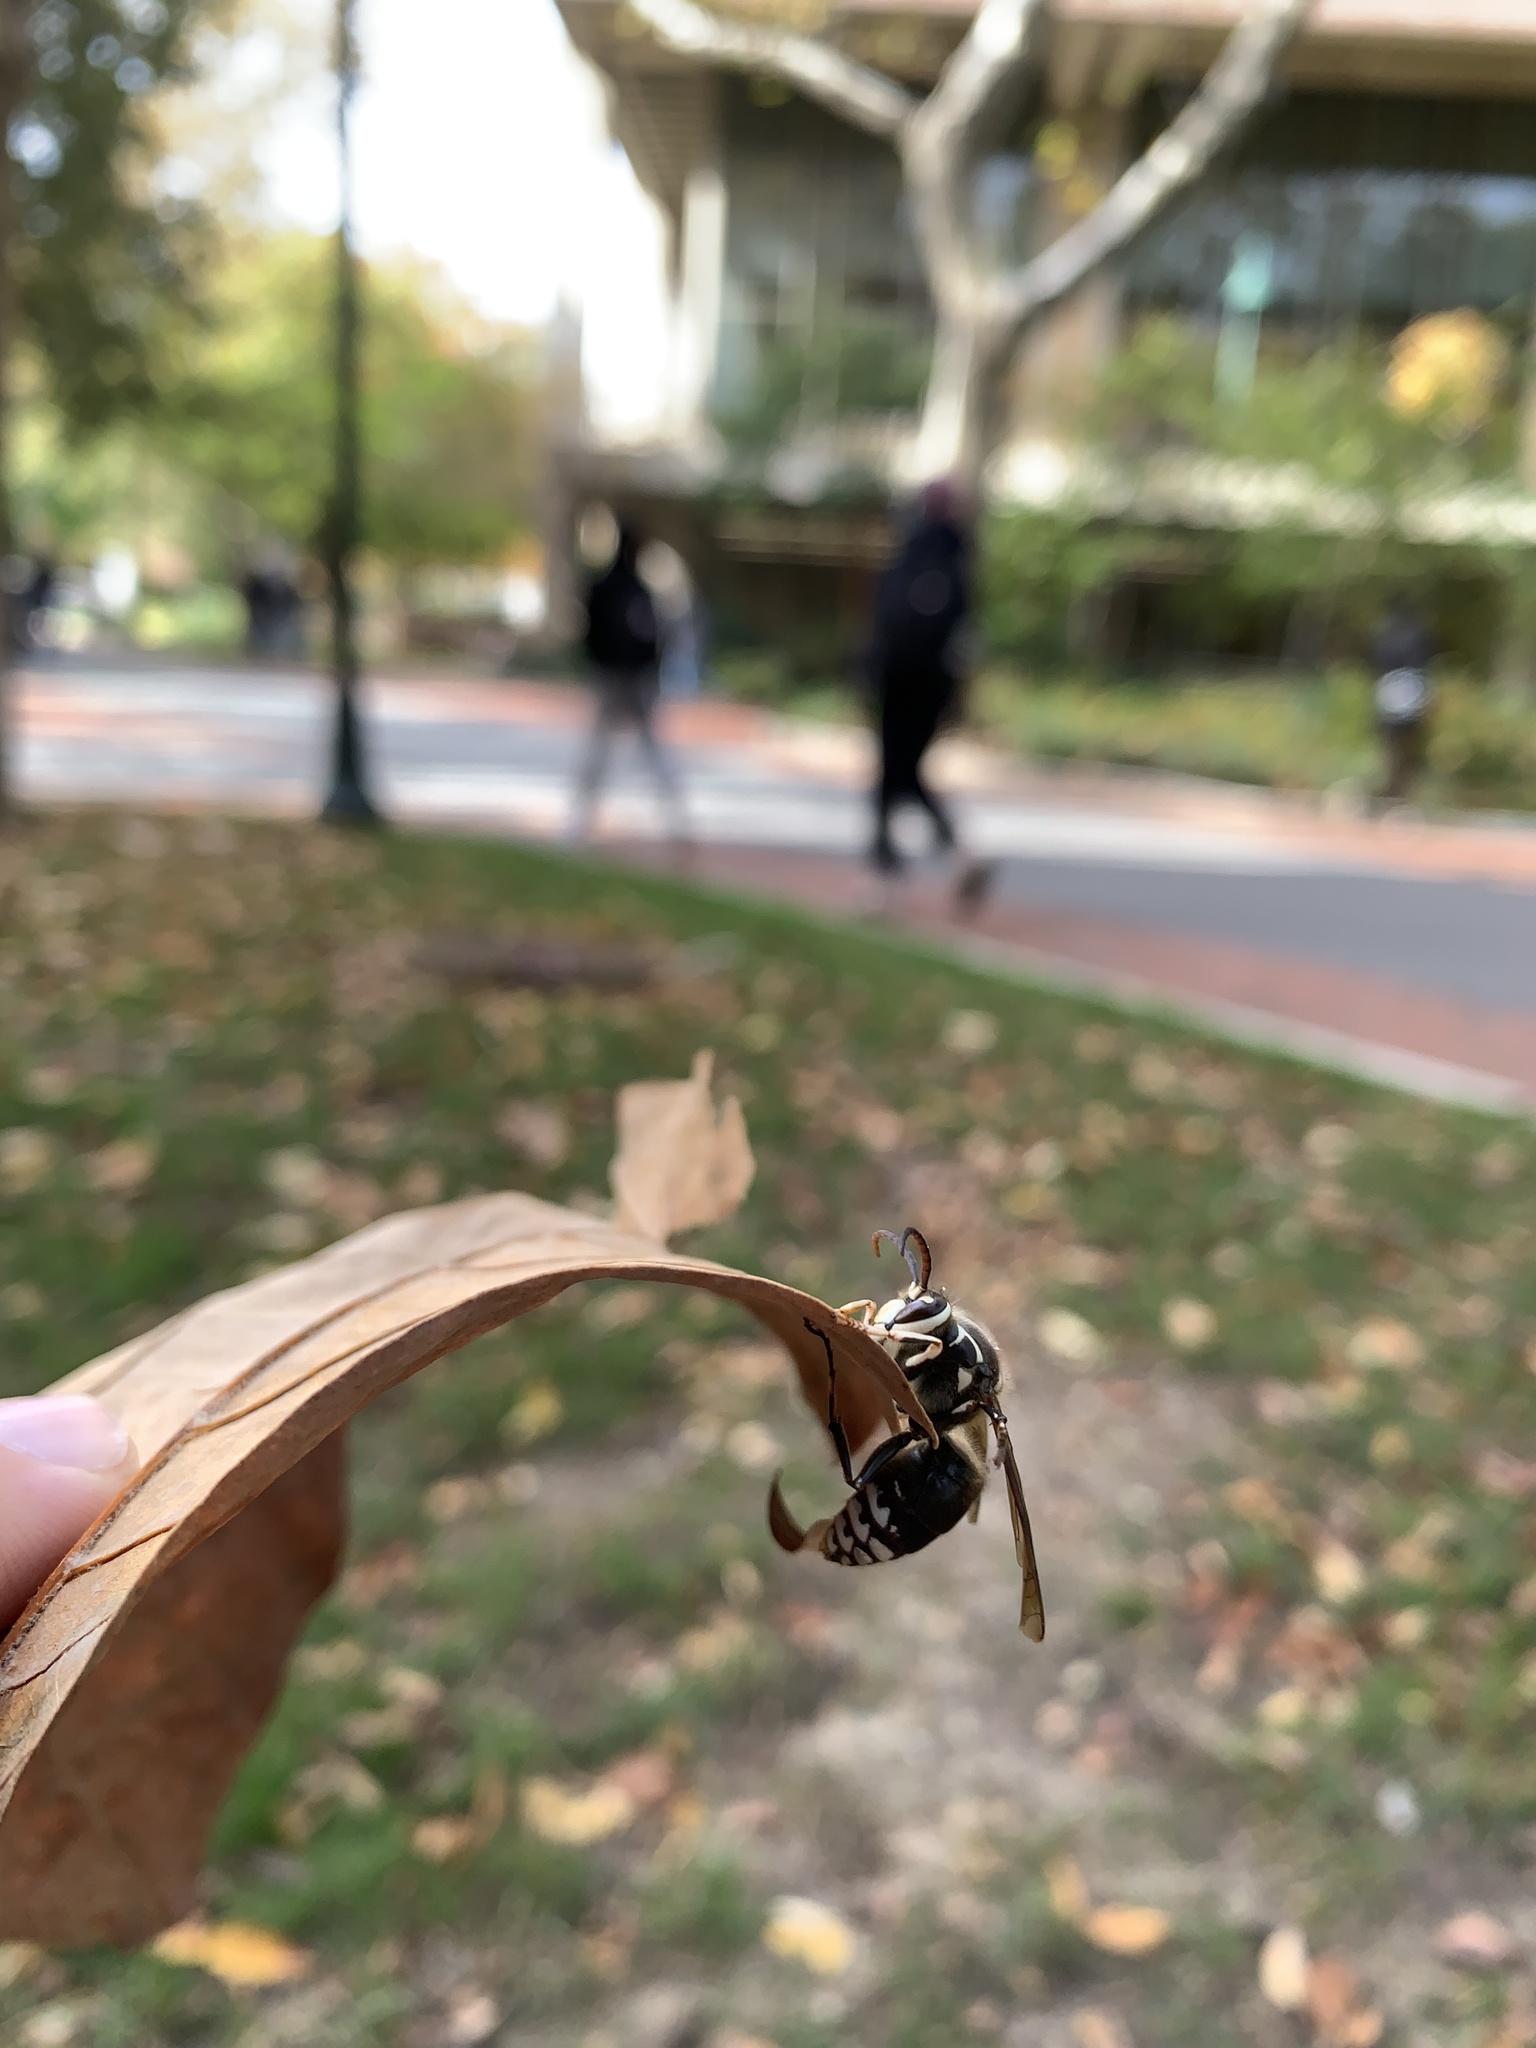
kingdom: Animalia
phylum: Arthropoda
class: Insecta
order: Hymenoptera
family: Vespidae
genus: Dolichovespula
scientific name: Dolichovespula maculata
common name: Bald-faced hornet
